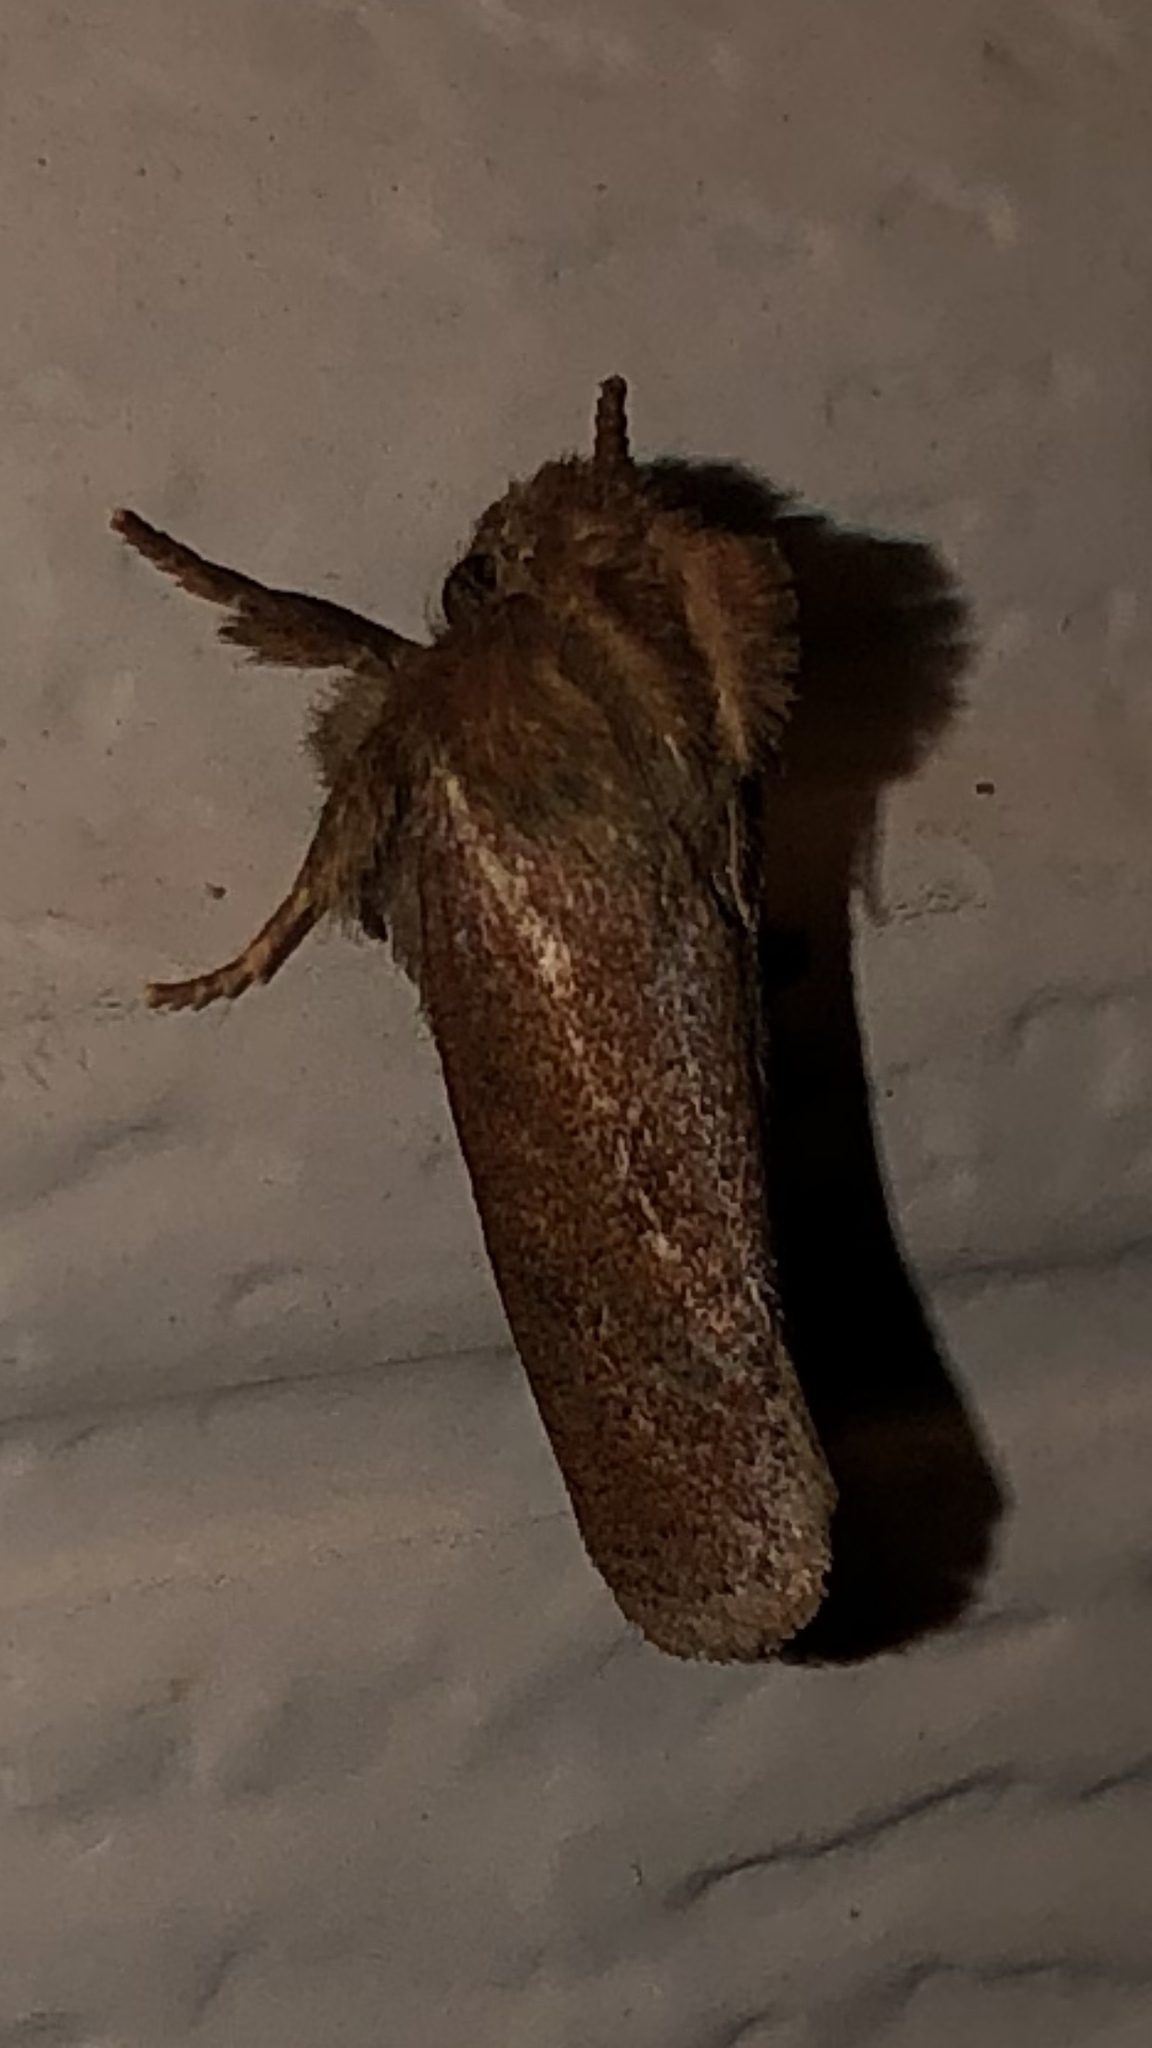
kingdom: Animalia
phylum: Arthropoda
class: Insecta
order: Lepidoptera
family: Tineidae
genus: Acrolophus
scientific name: Acrolophus plumifrontella
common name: Eastern grass tubeworm moth
